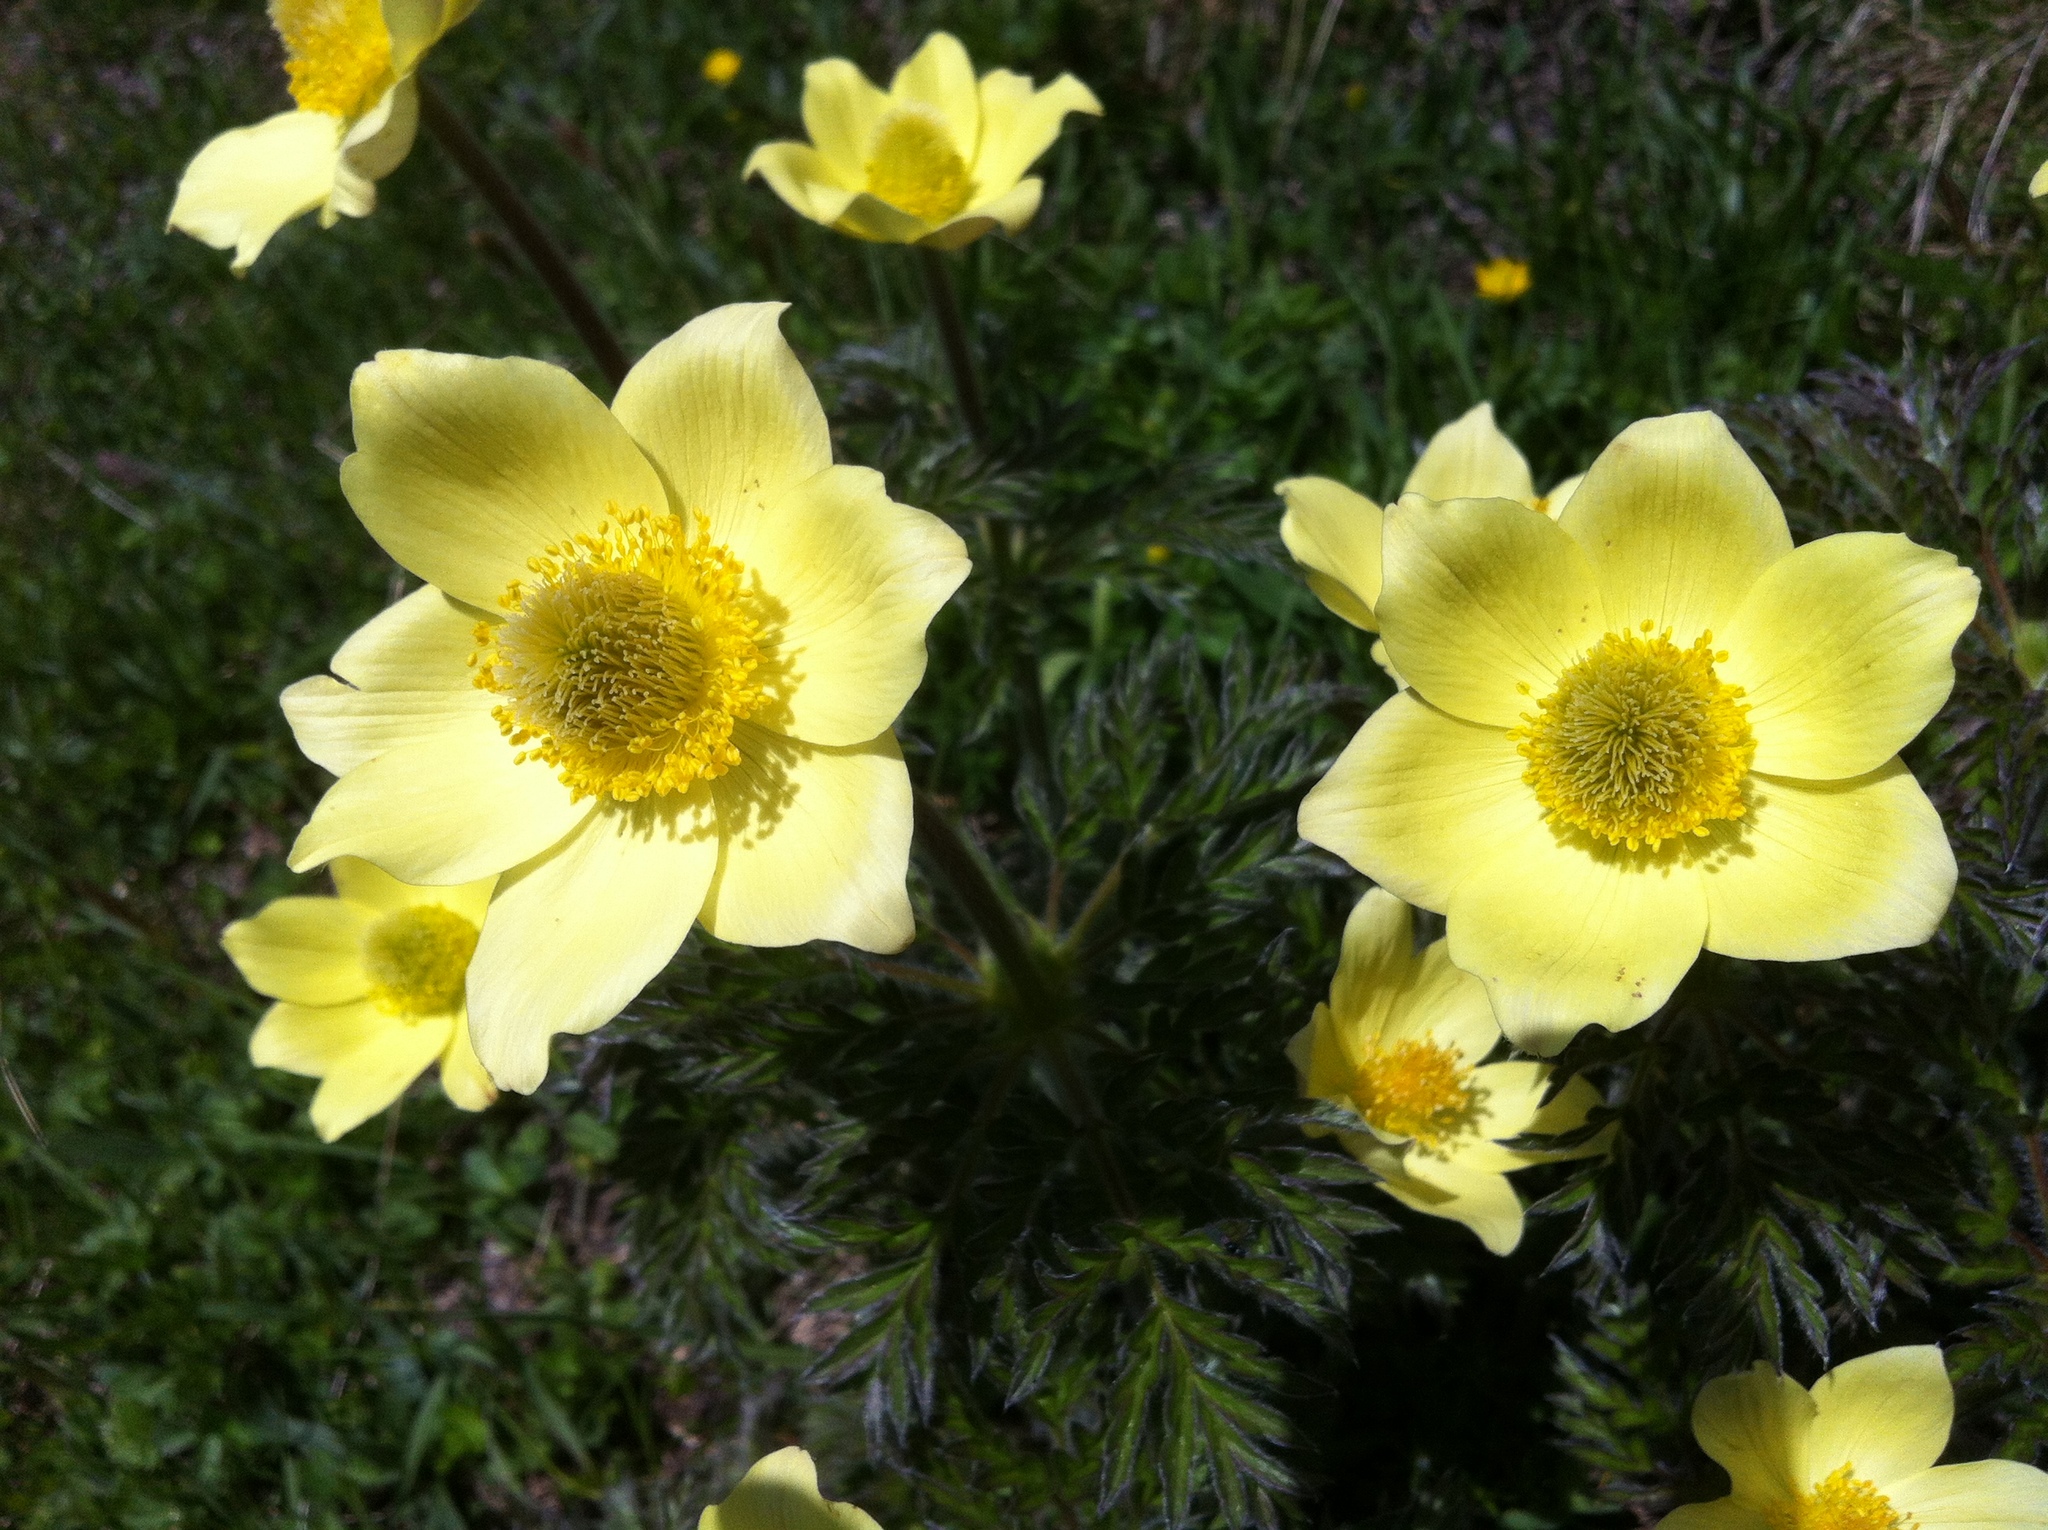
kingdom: Plantae
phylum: Tracheophyta
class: Magnoliopsida
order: Ranunculales
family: Ranunculaceae
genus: Pulsatilla
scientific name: Pulsatilla alpina
